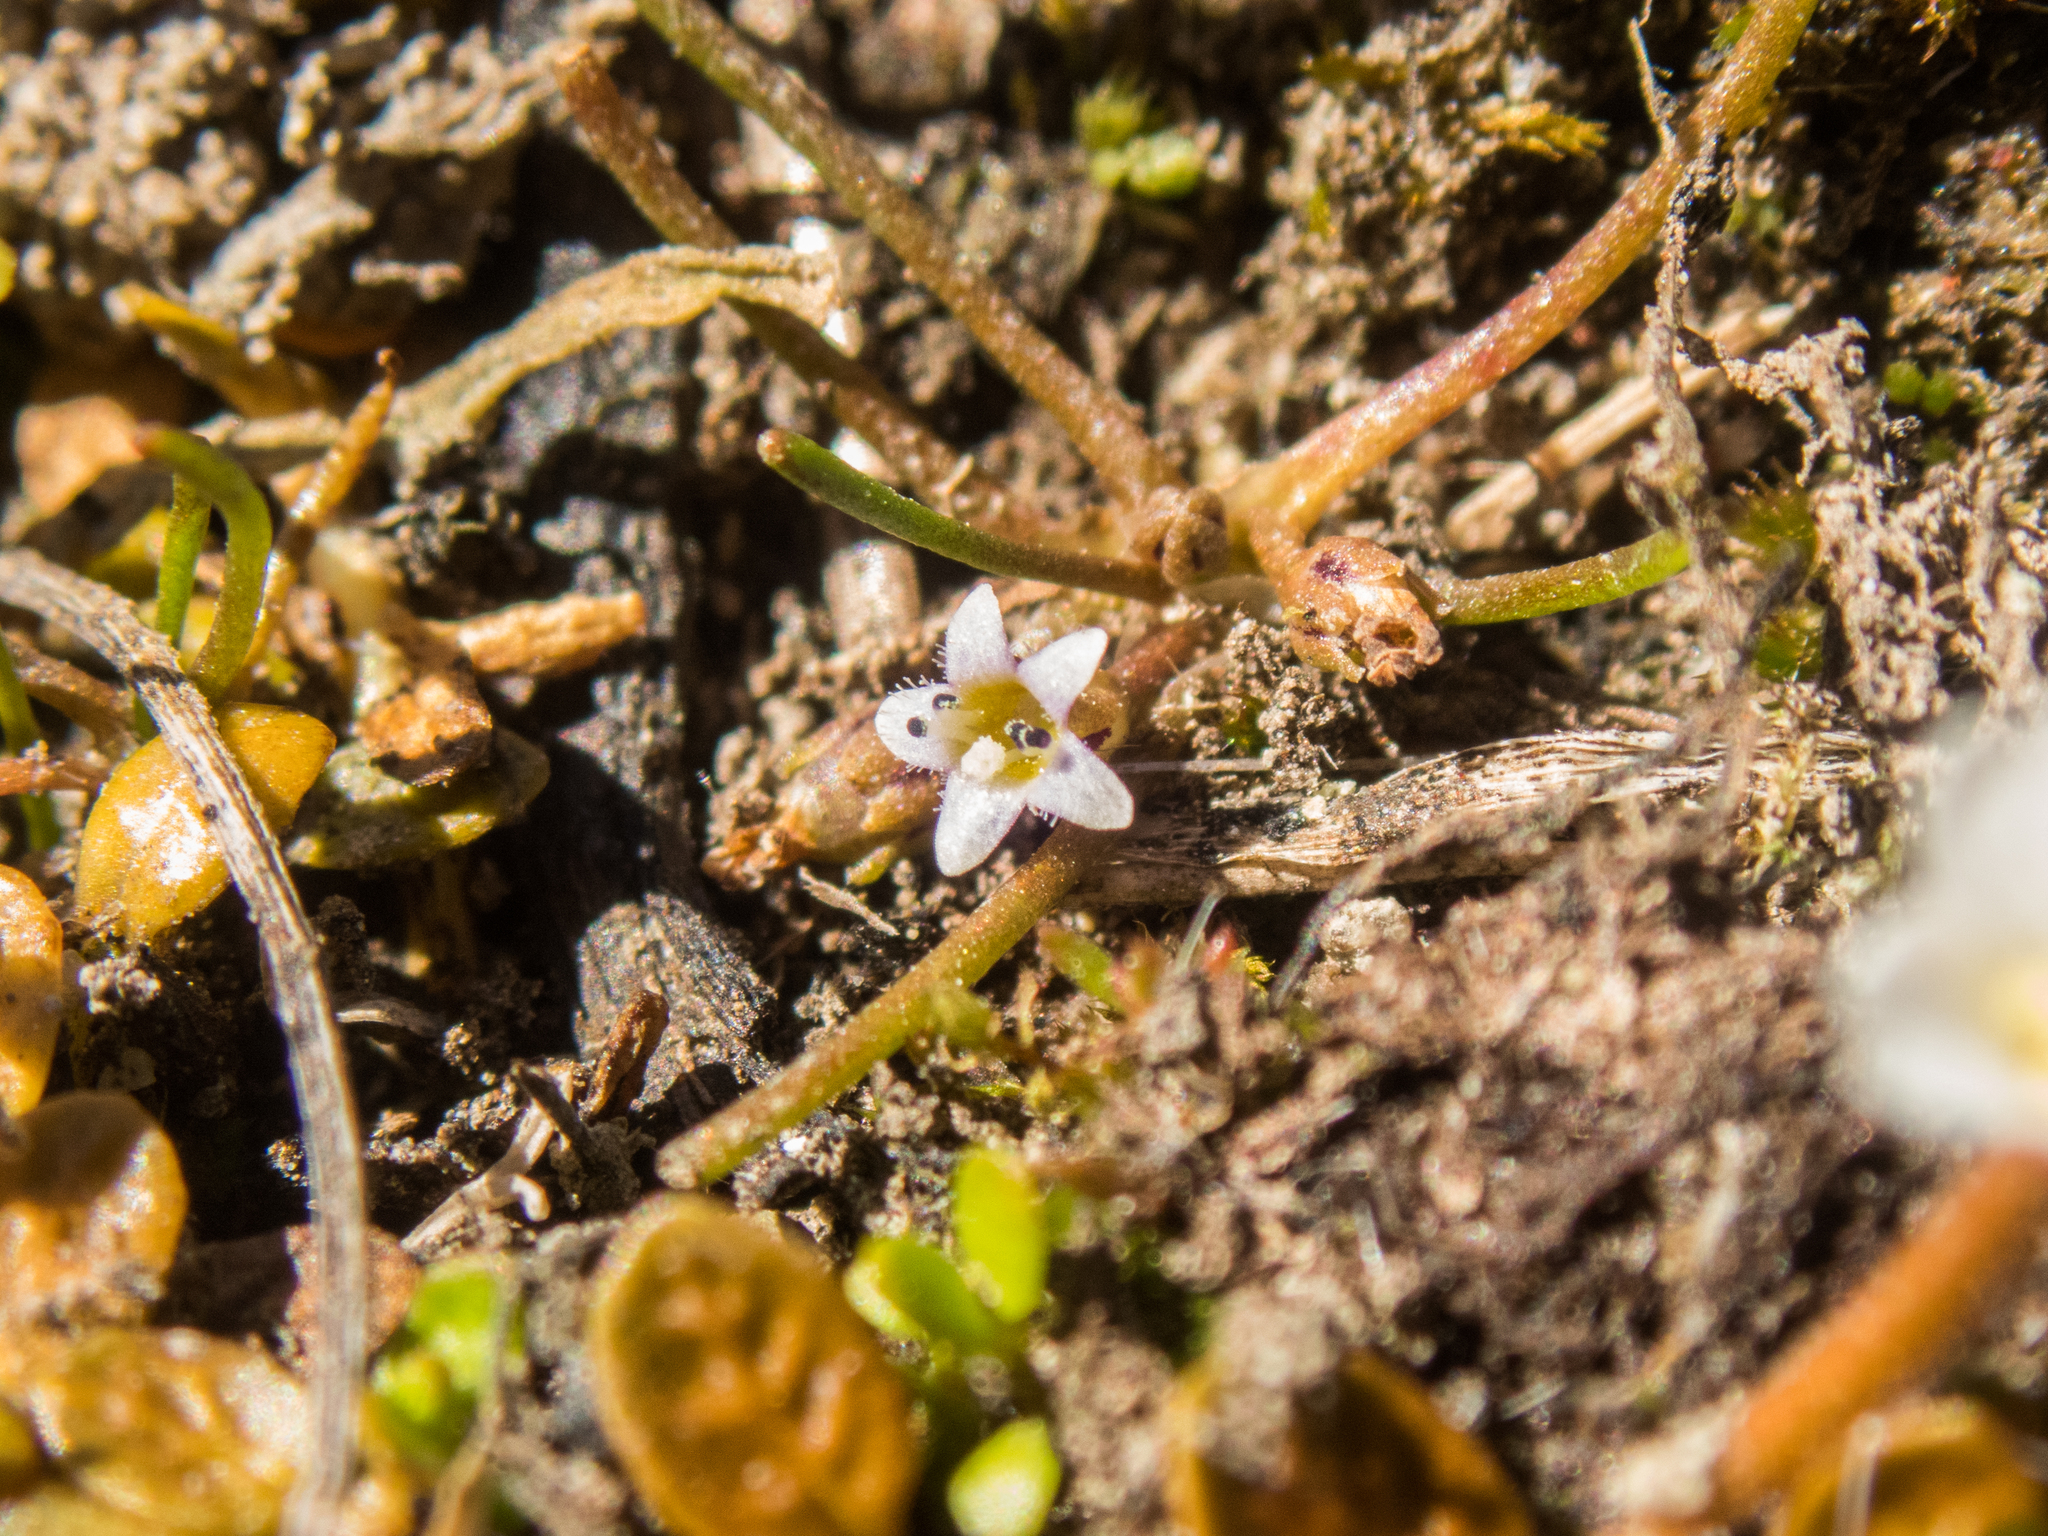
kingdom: Plantae
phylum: Tracheophyta
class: Magnoliopsida
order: Lamiales
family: Scrophulariaceae
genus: Limosella
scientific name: Limosella australis
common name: Welsh mudwort
